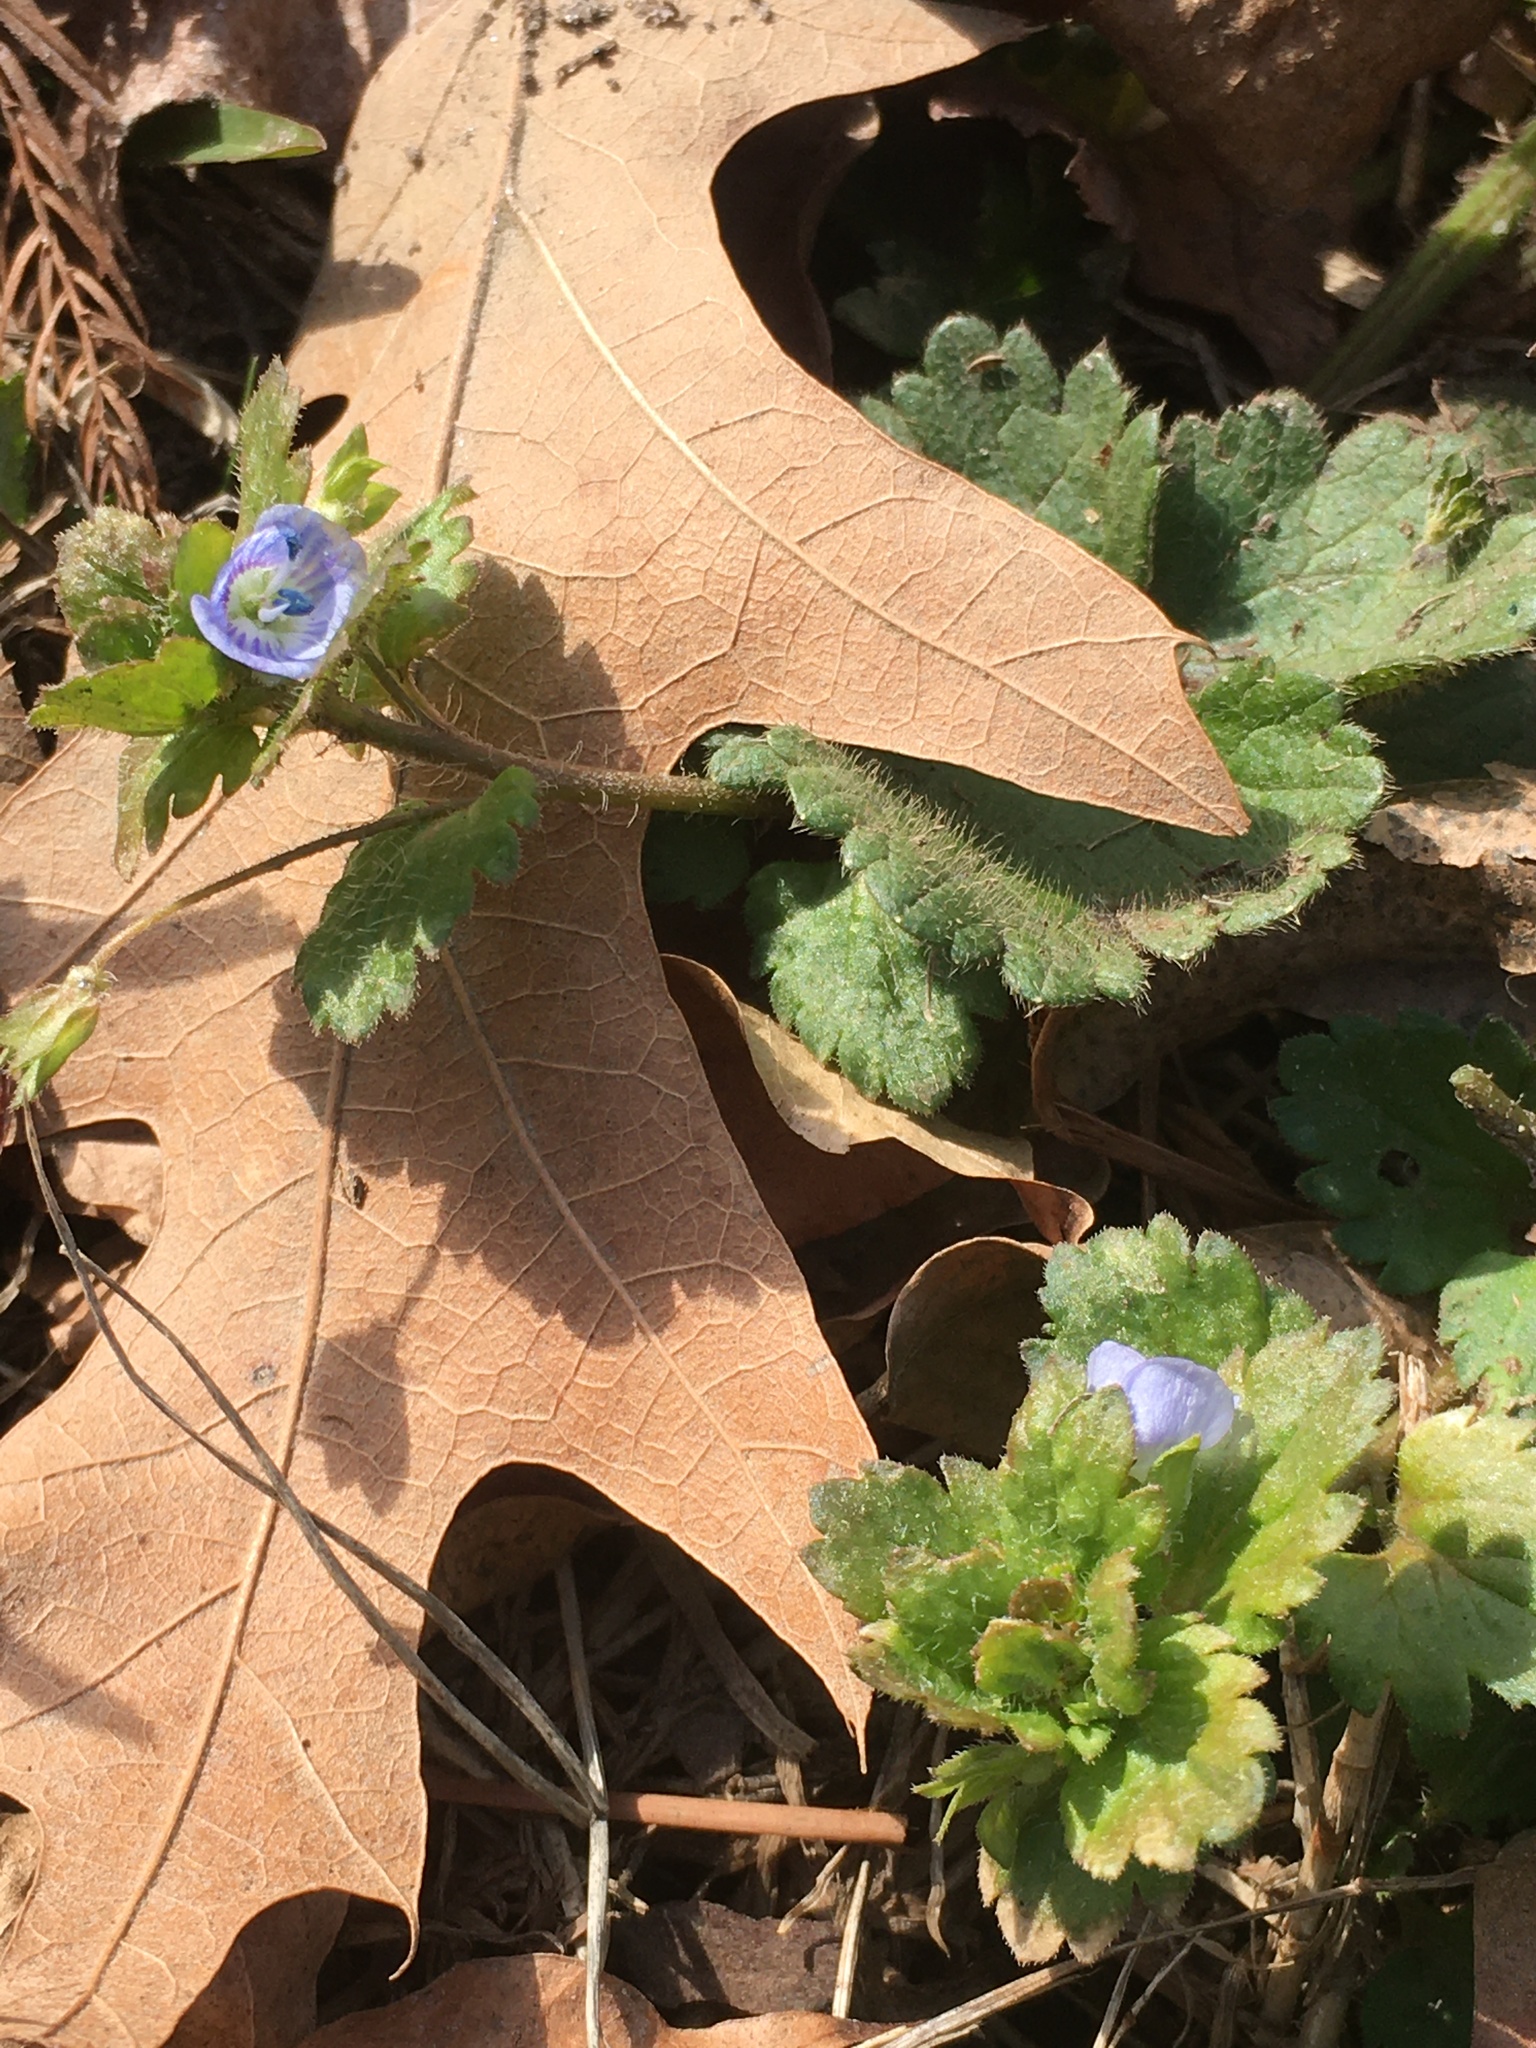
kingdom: Plantae
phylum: Tracheophyta
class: Magnoliopsida
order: Lamiales
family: Plantaginaceae
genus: Veronica
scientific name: Veronica persica
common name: Common field-speedwell
